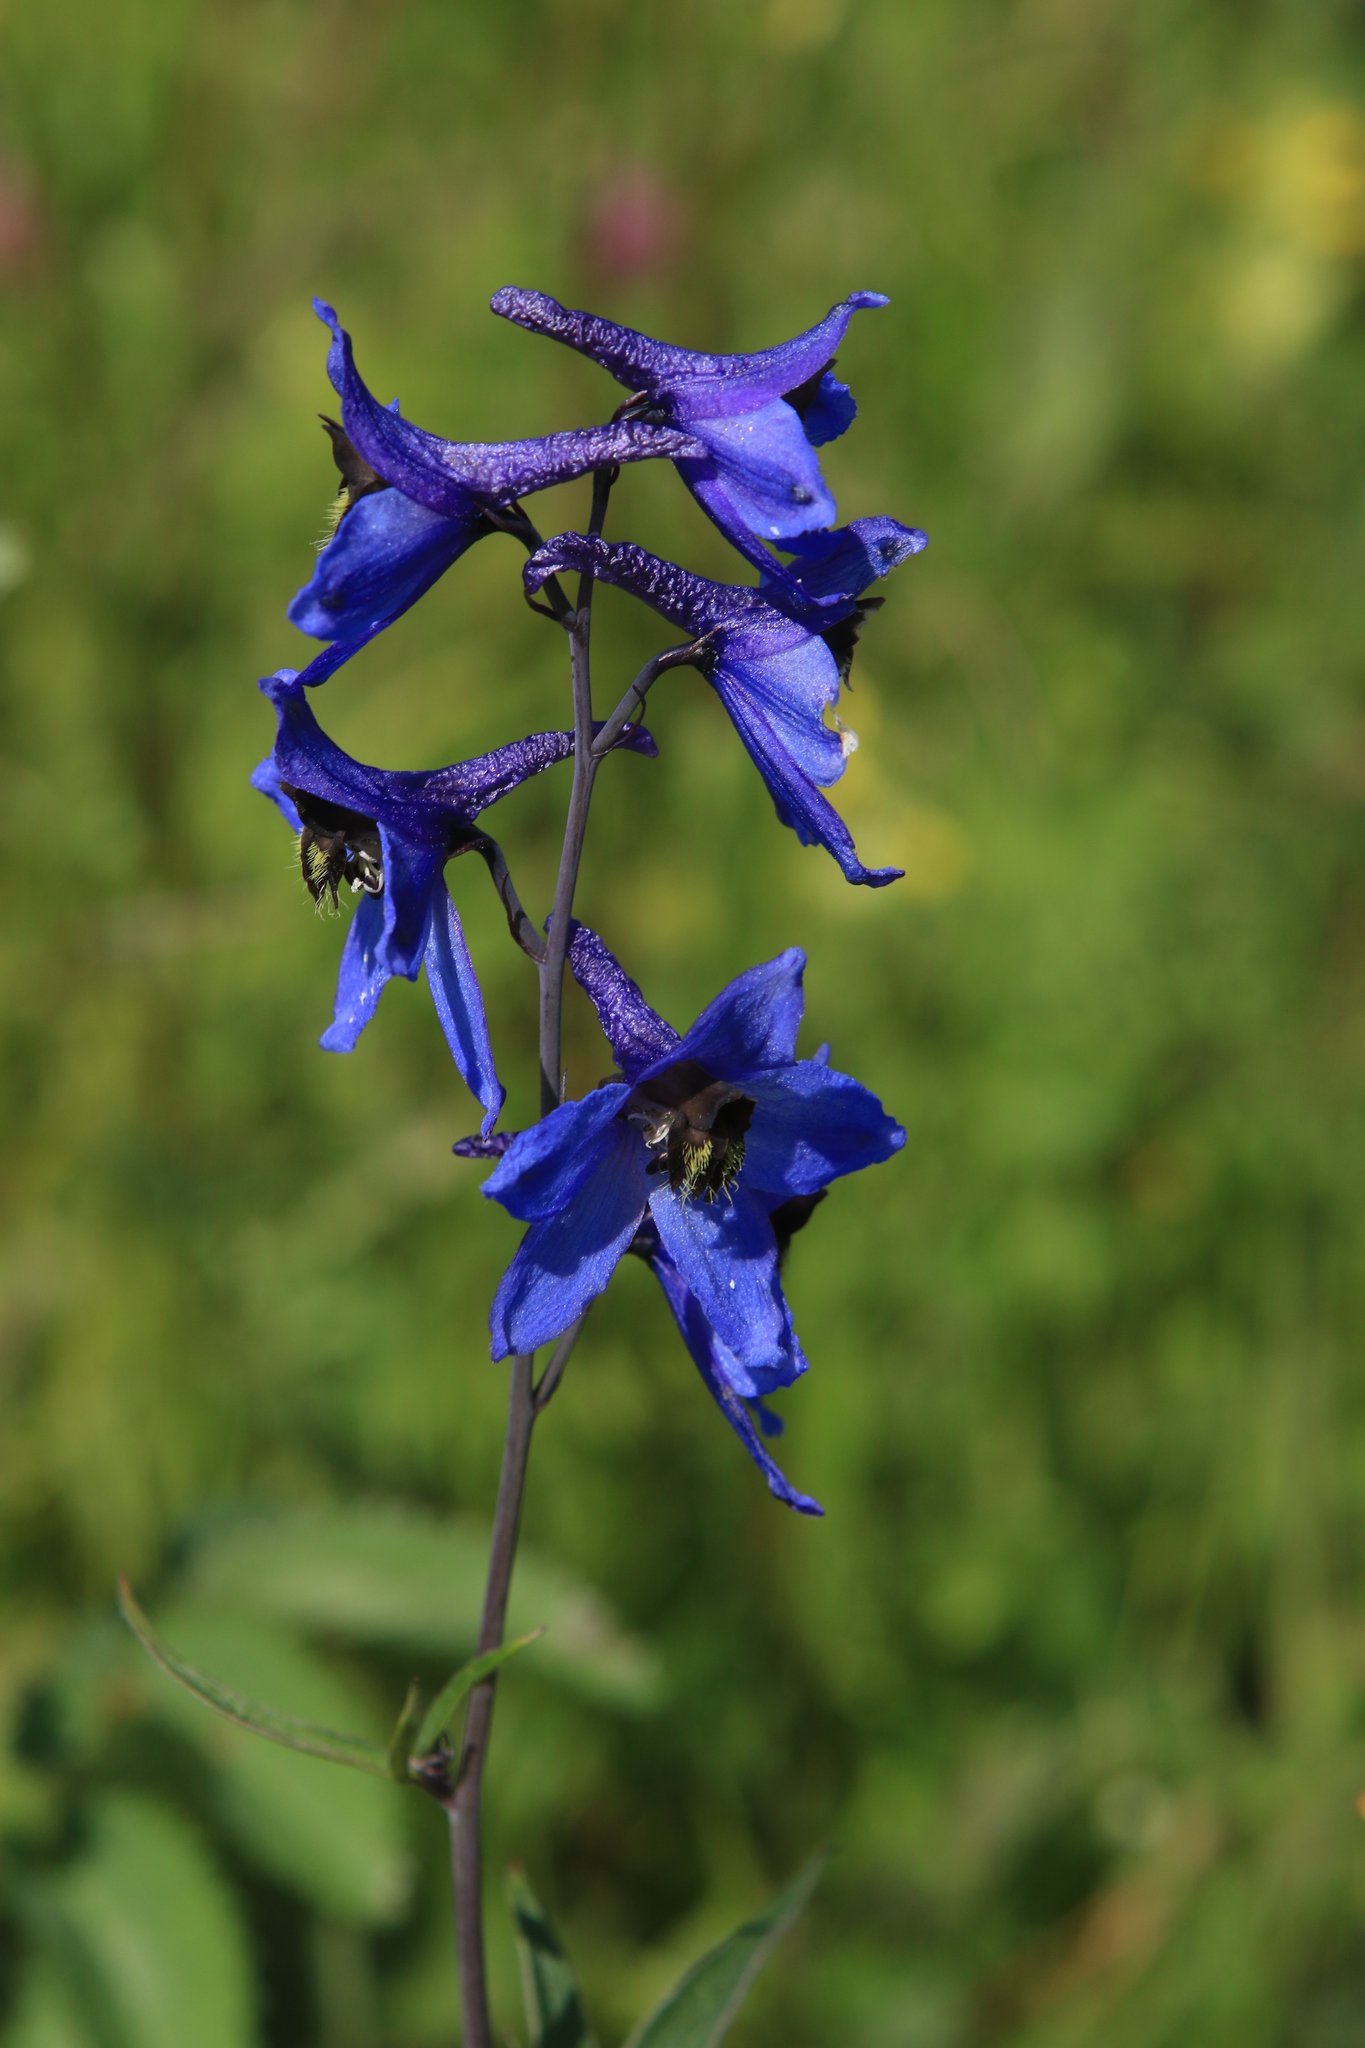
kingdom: Plantae
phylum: Tracheophyta
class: Magnoliopsida
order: Ranunculales
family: Ranunculaceae
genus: Delphinium
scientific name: Delphinium elatum
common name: Candle larkspur
